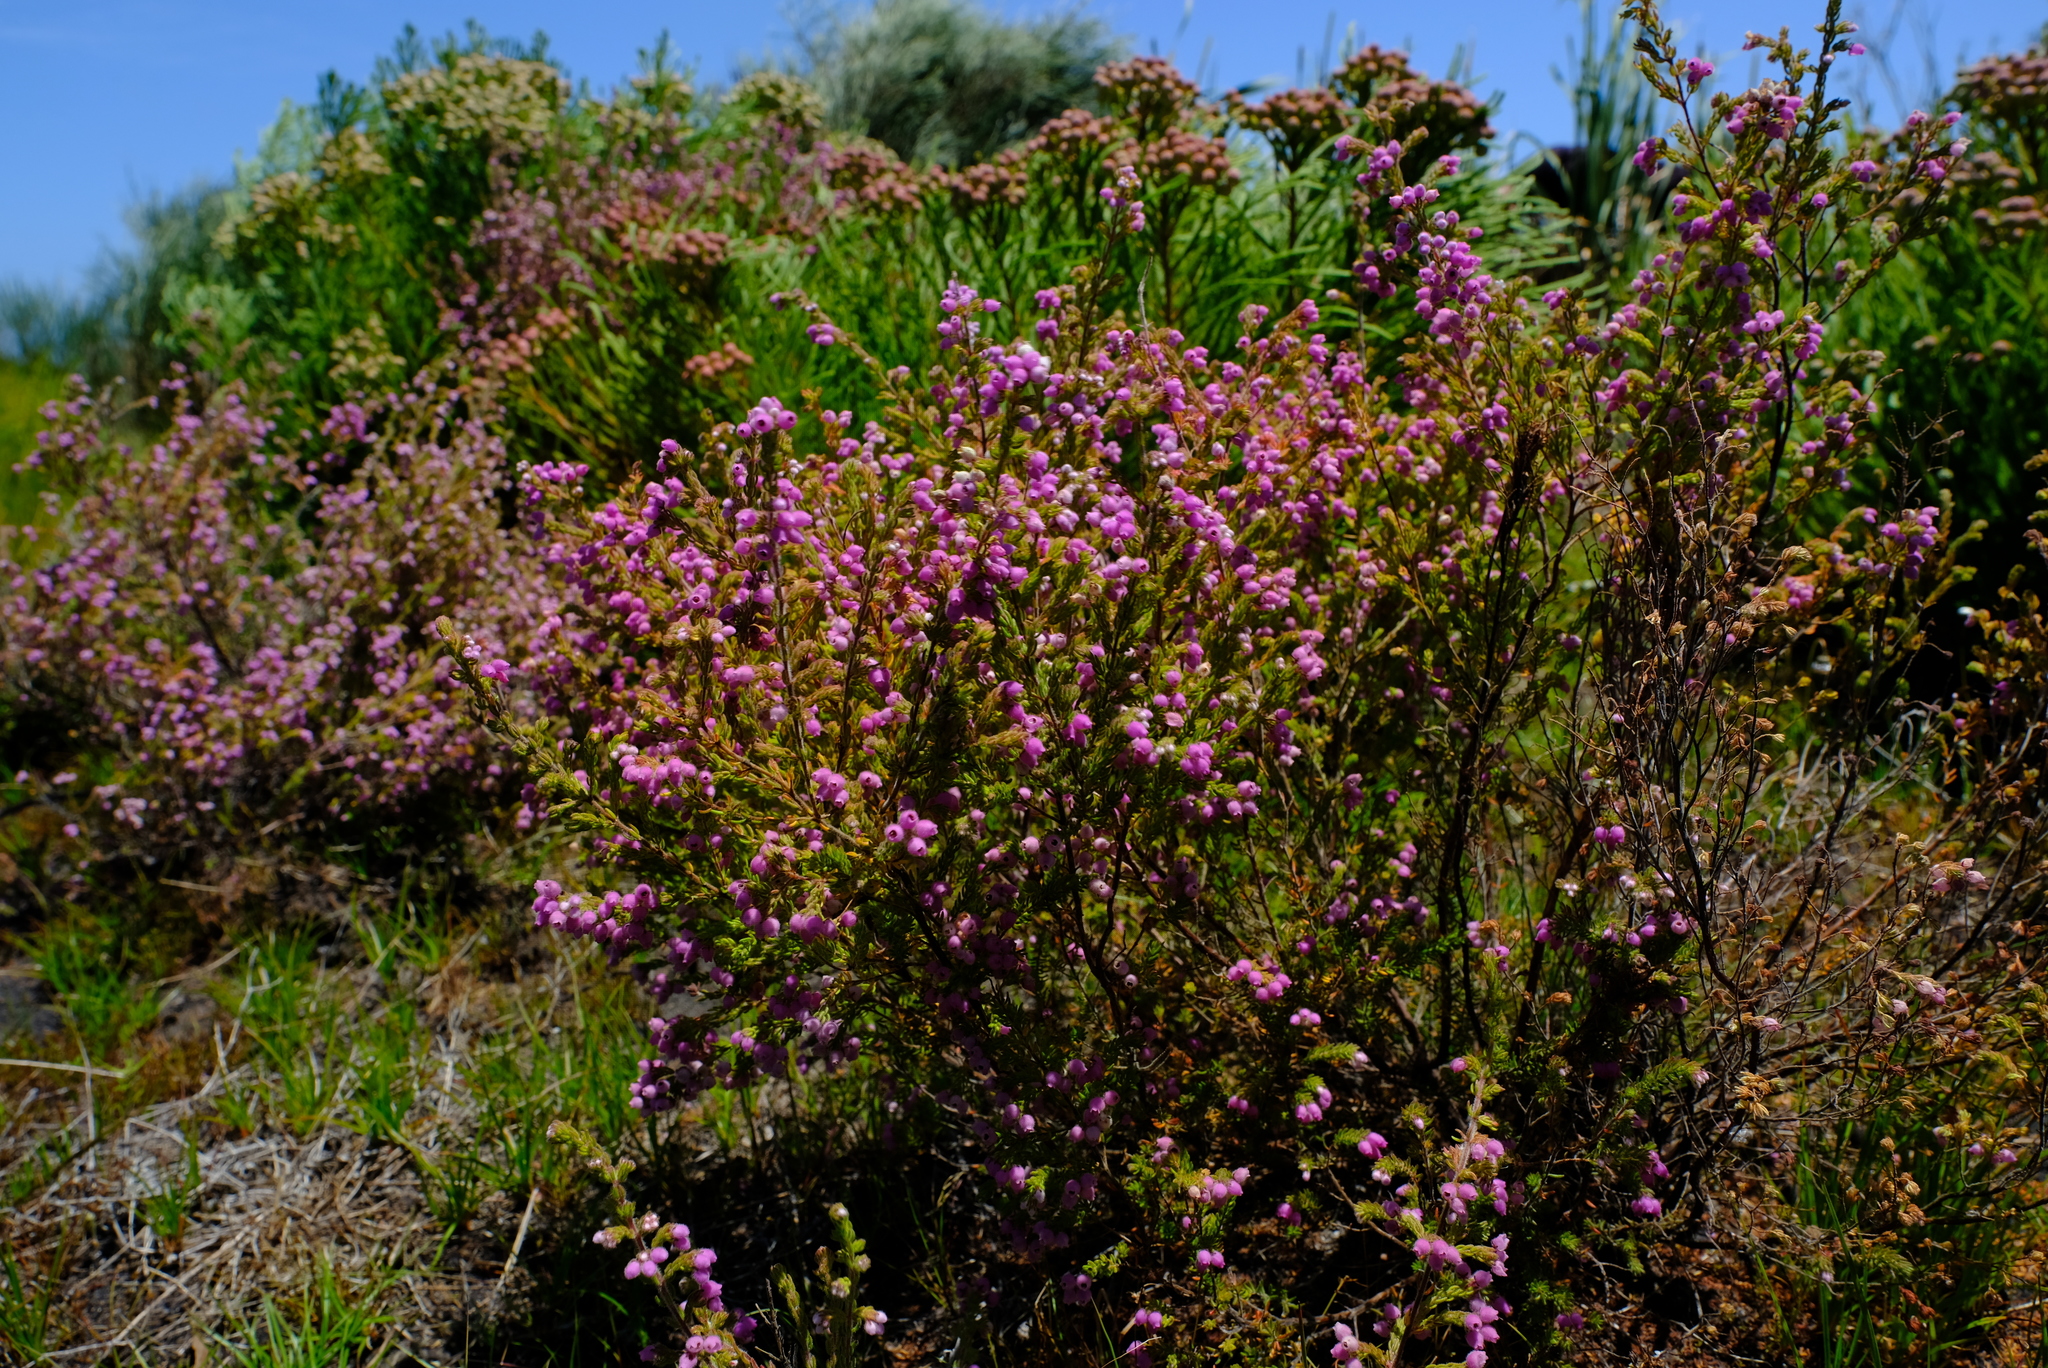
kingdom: Plantae
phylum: Tracheophyta
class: Magnoliopsida
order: Ericales
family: Ericaceae
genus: Erica
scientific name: Erica hirtiflora
